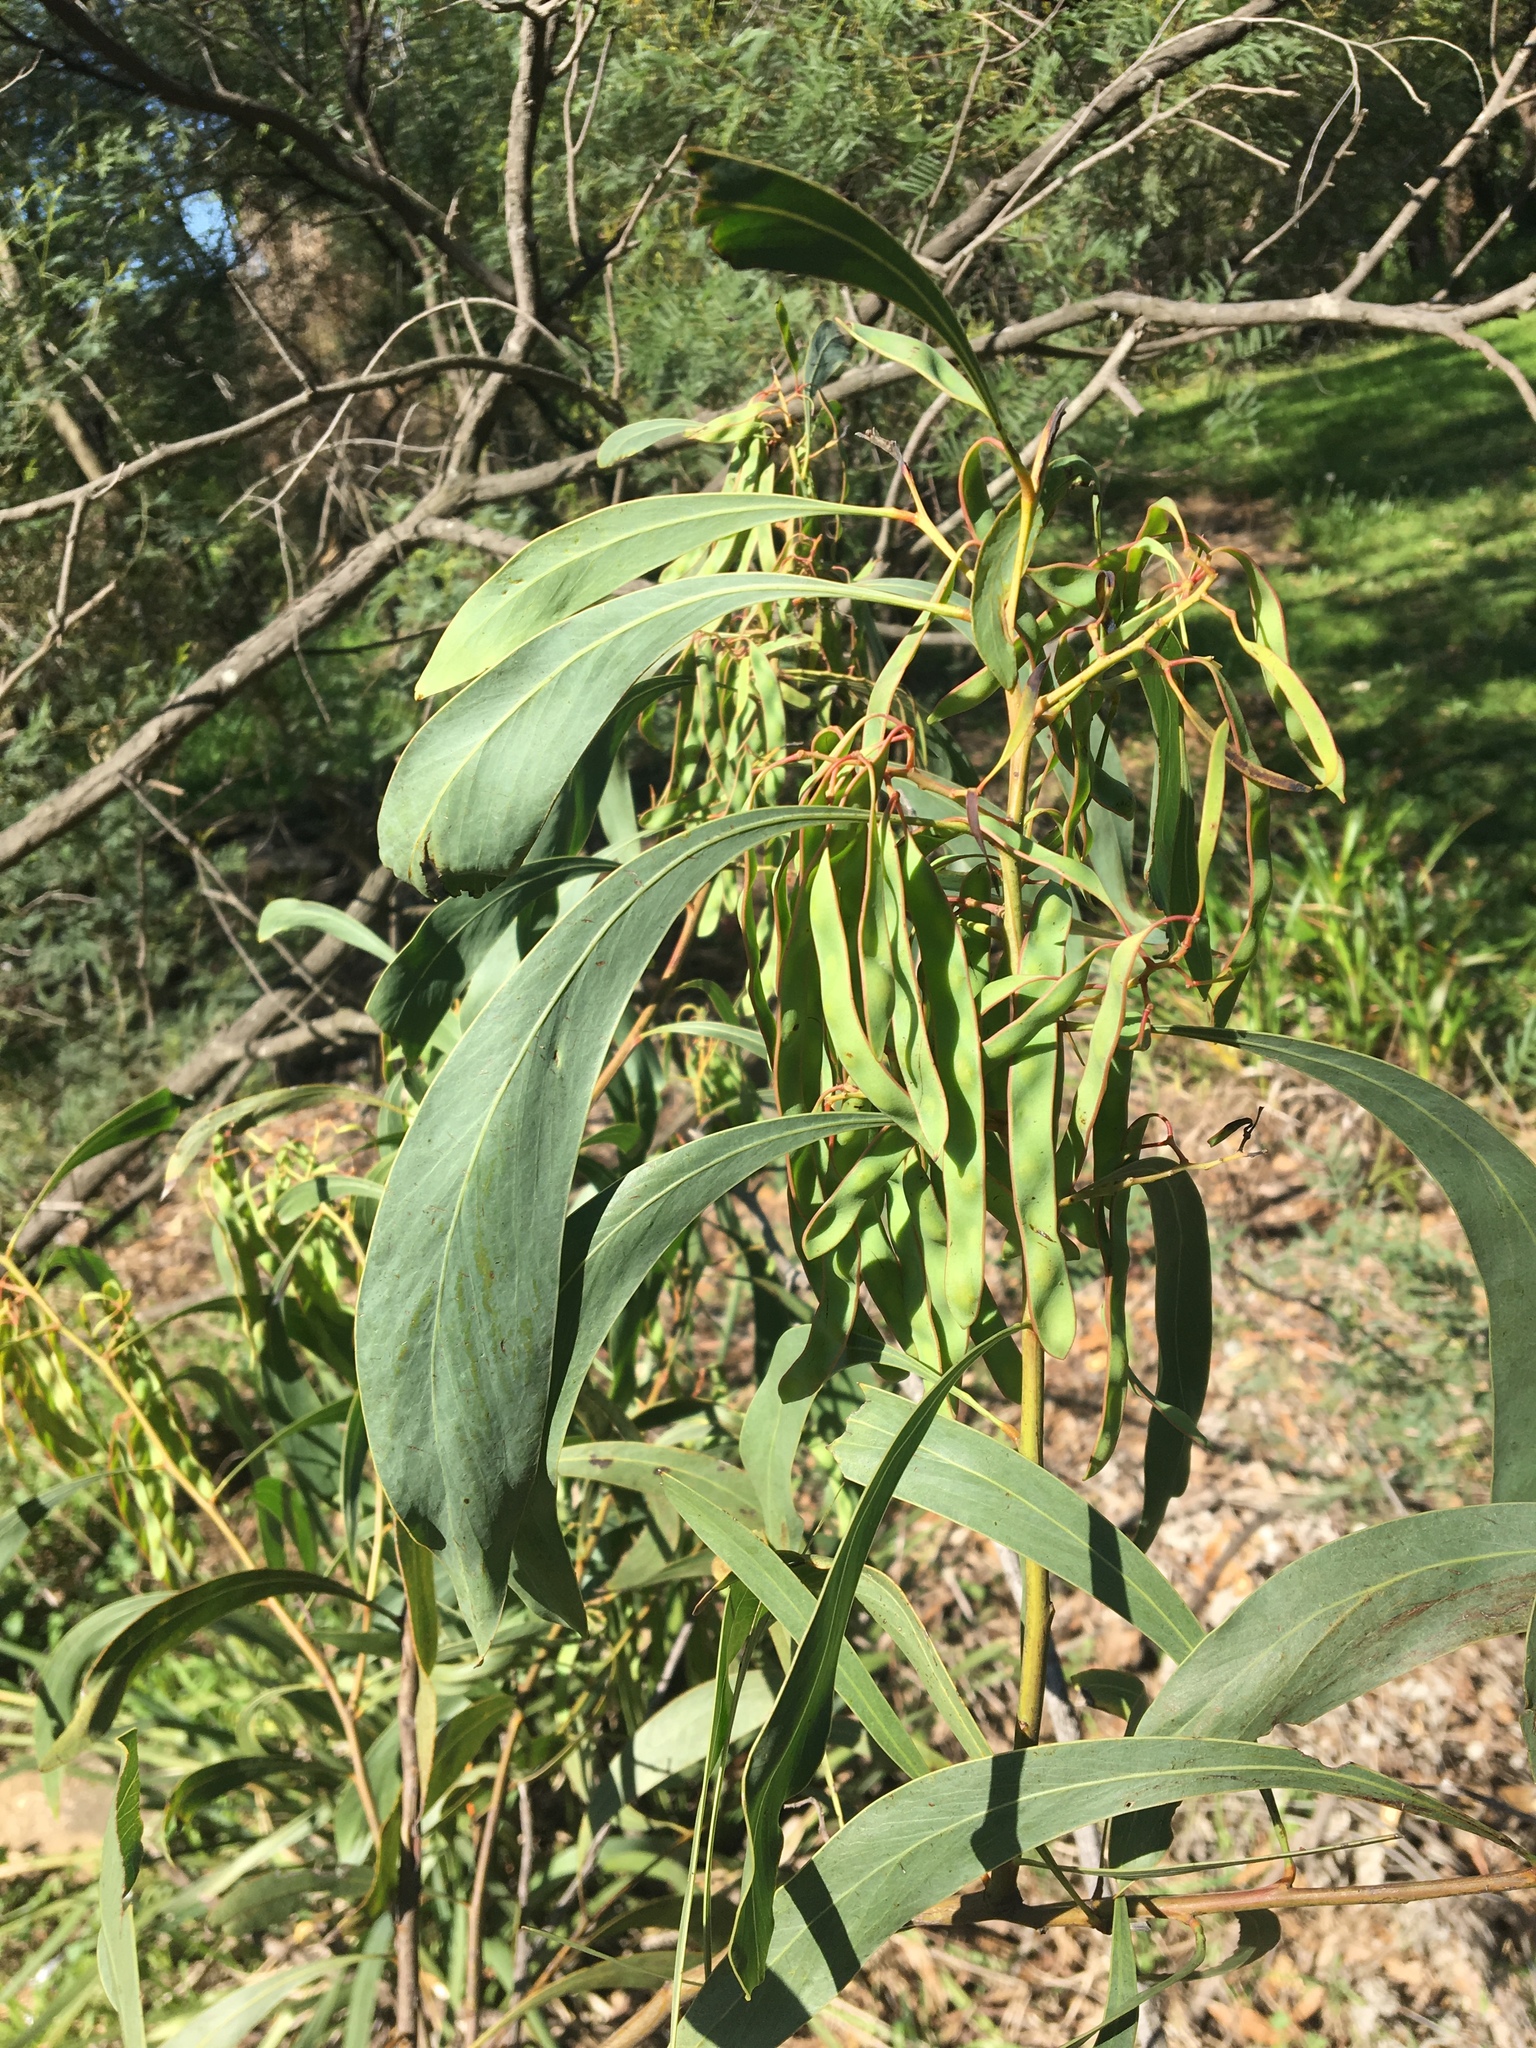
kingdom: Plantae
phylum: Tracheophyta
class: Magnoliopsida
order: Fabales
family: Fabaceae
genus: Acacia
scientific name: Acacia falcata
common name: Burra acacia
